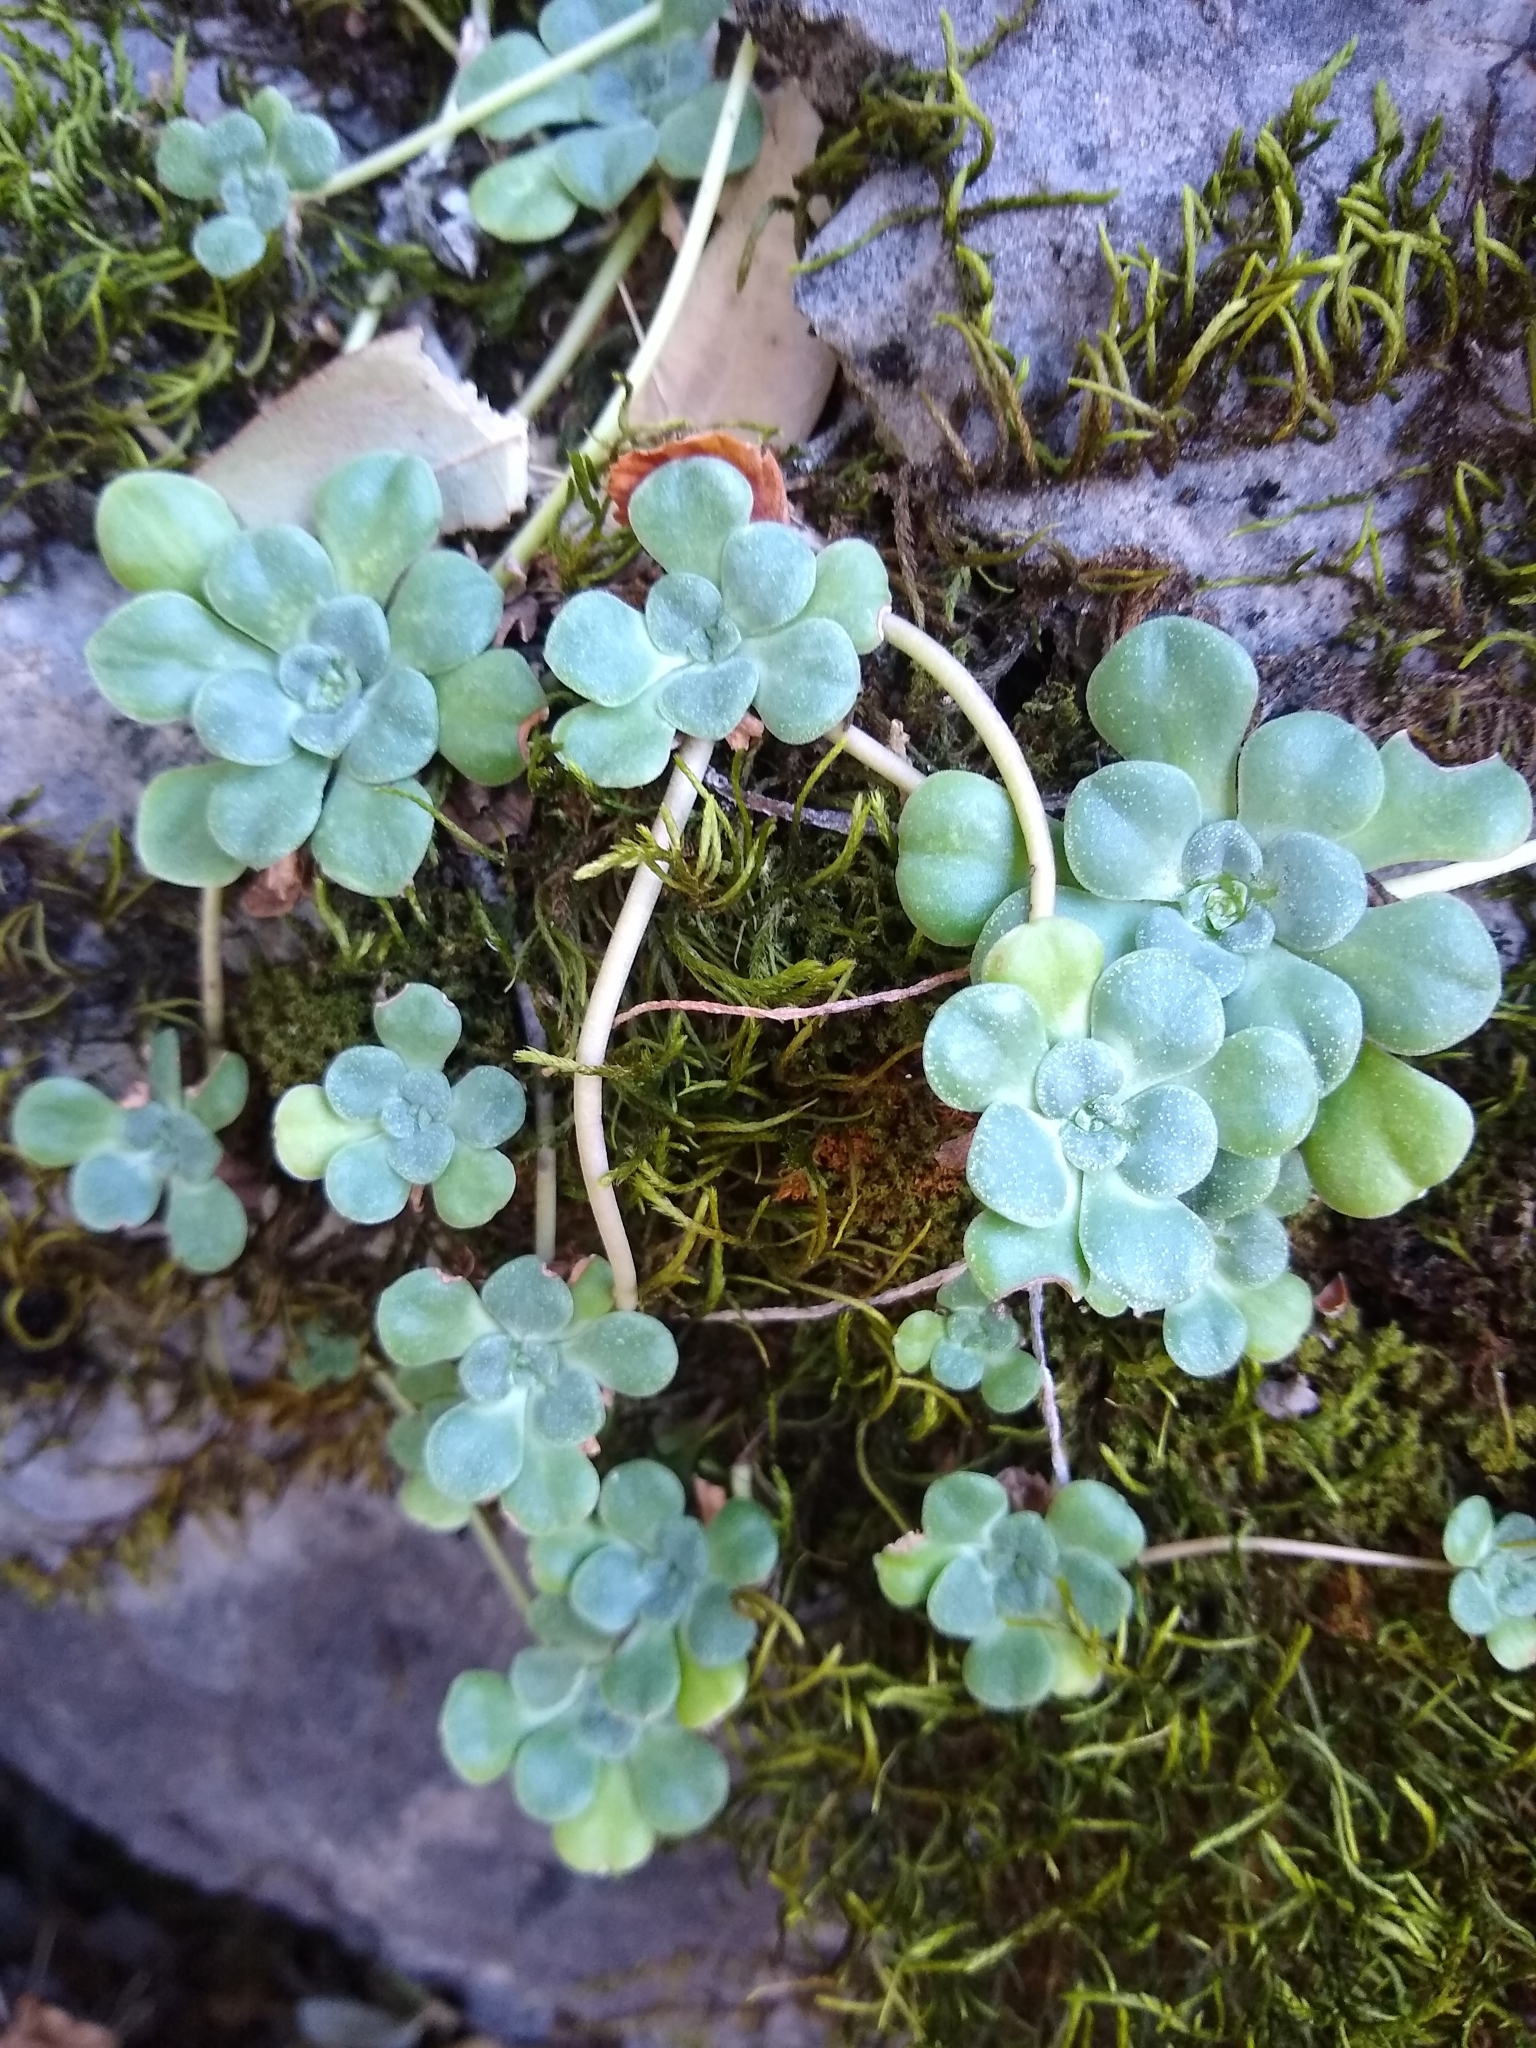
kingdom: Plantae
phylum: Tracheophyta
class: Magnoliopsida
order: Saxifragales
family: Crassulaceae
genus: Sedum
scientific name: Sedum spathulifolium
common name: Colorado stonecrop
